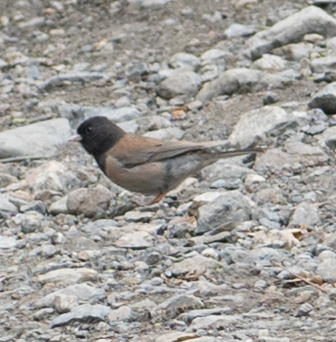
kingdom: Animalia
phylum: Chordata
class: Aves
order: Passeriformes
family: Passerellidae
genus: Junco
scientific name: Junco hyemalis
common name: Dark-eyed junco
